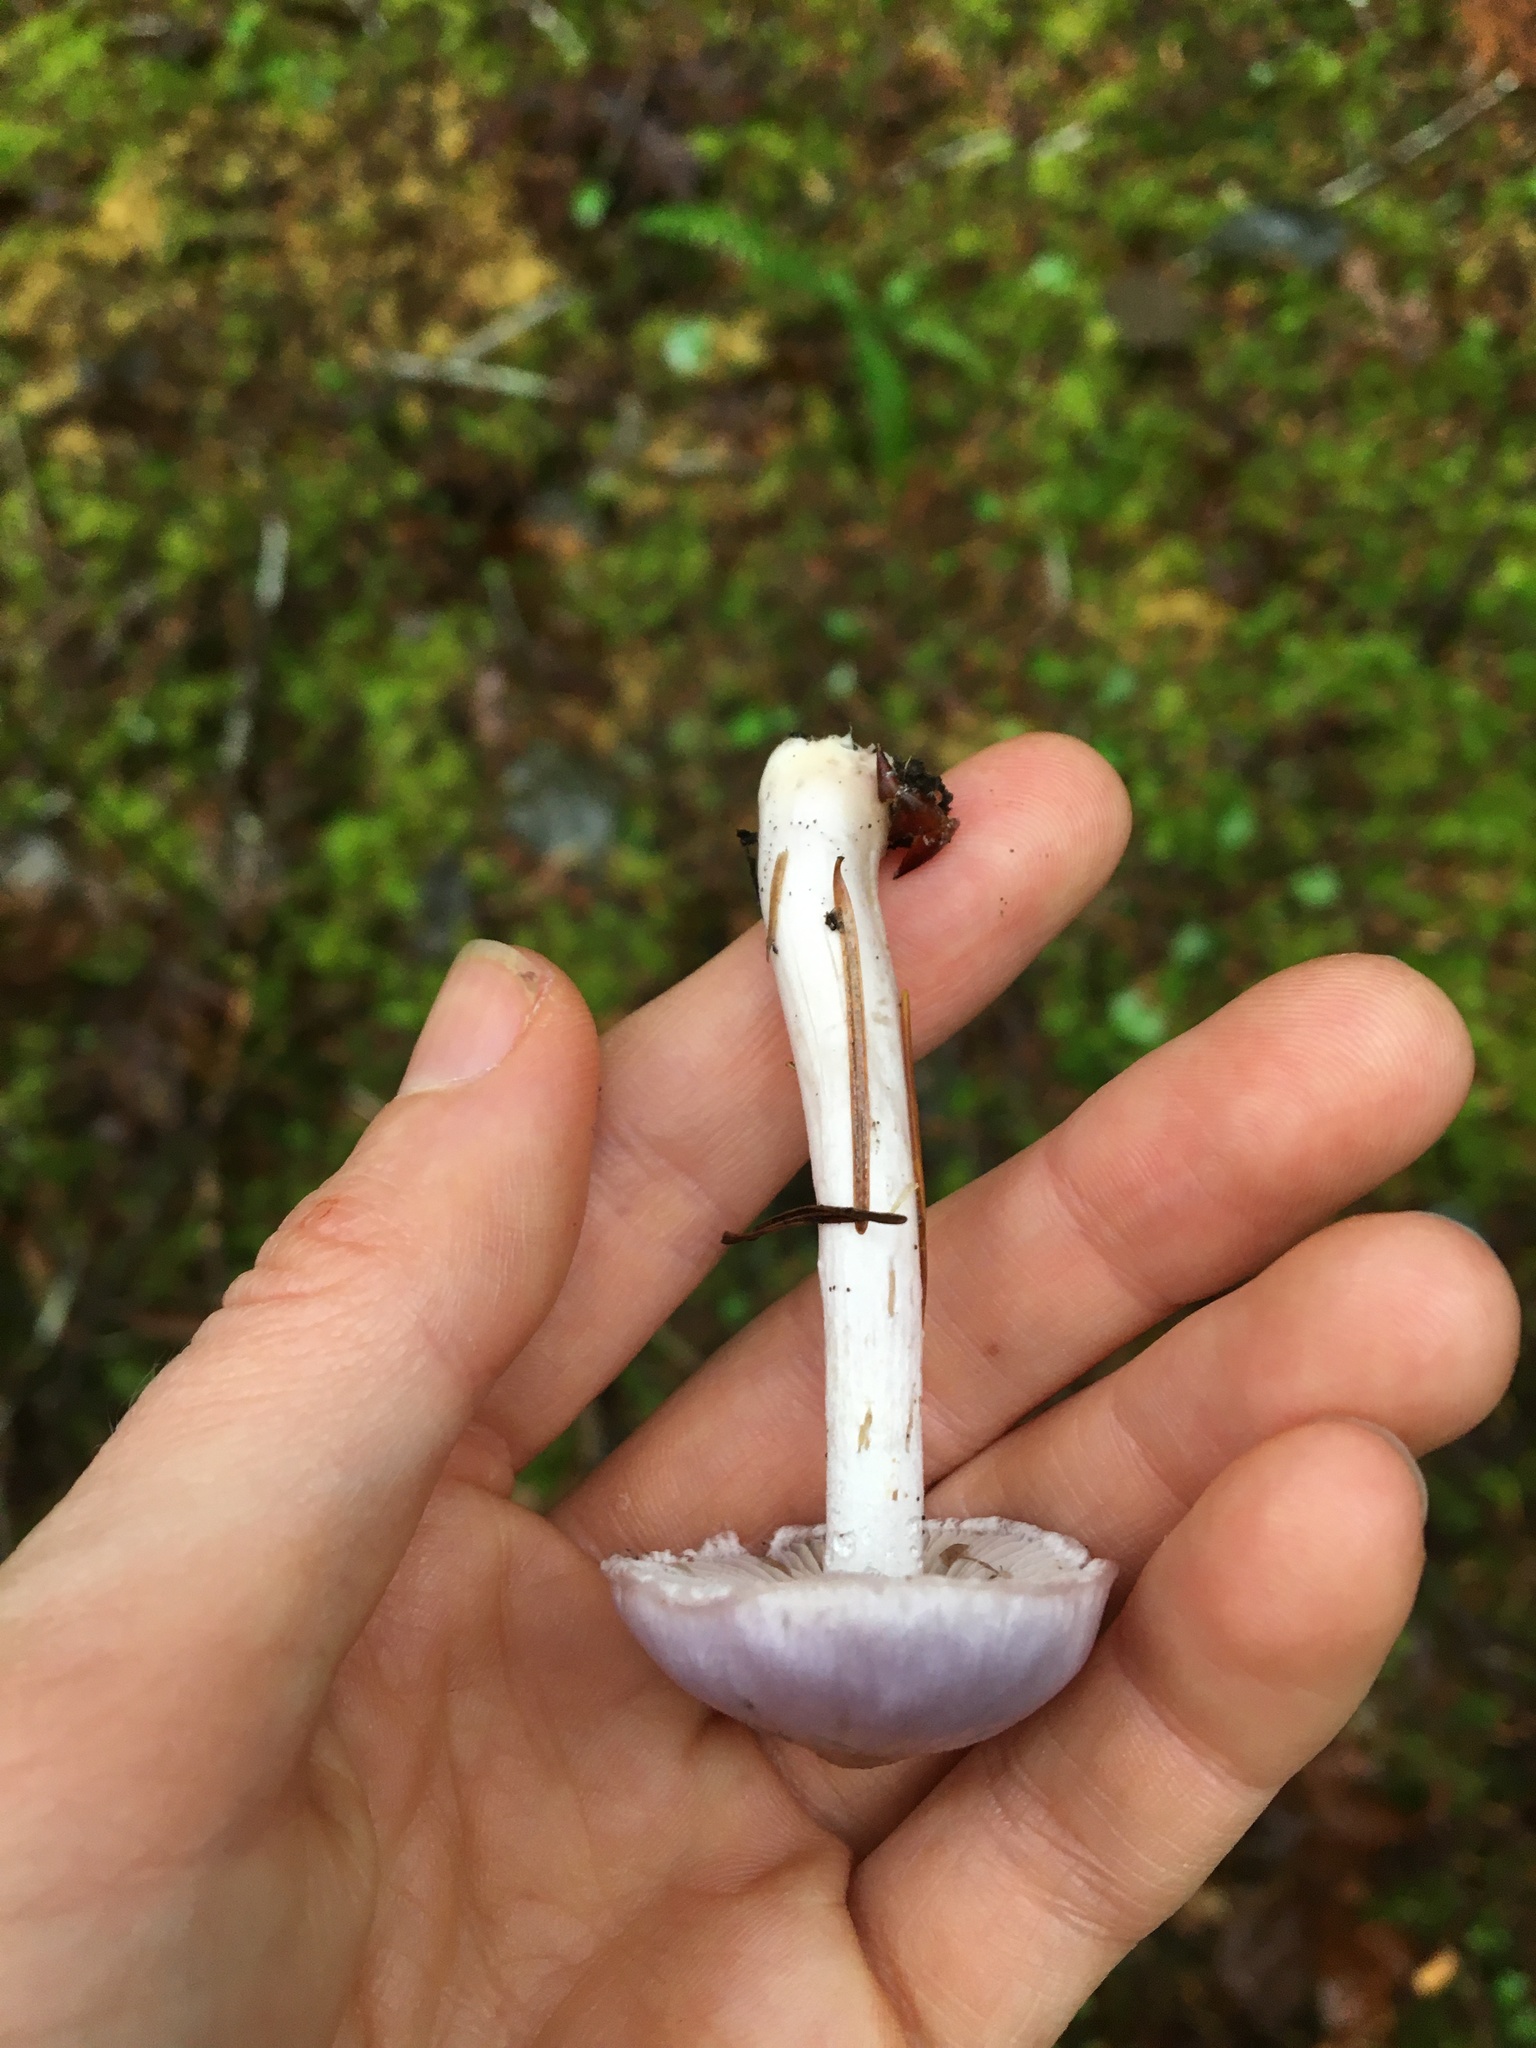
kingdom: Fungi
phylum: Basidiomycota
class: Agaricomycetes
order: Agaricales
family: Inocybaceae
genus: Inocybe
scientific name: Inocybe pallidicremea
